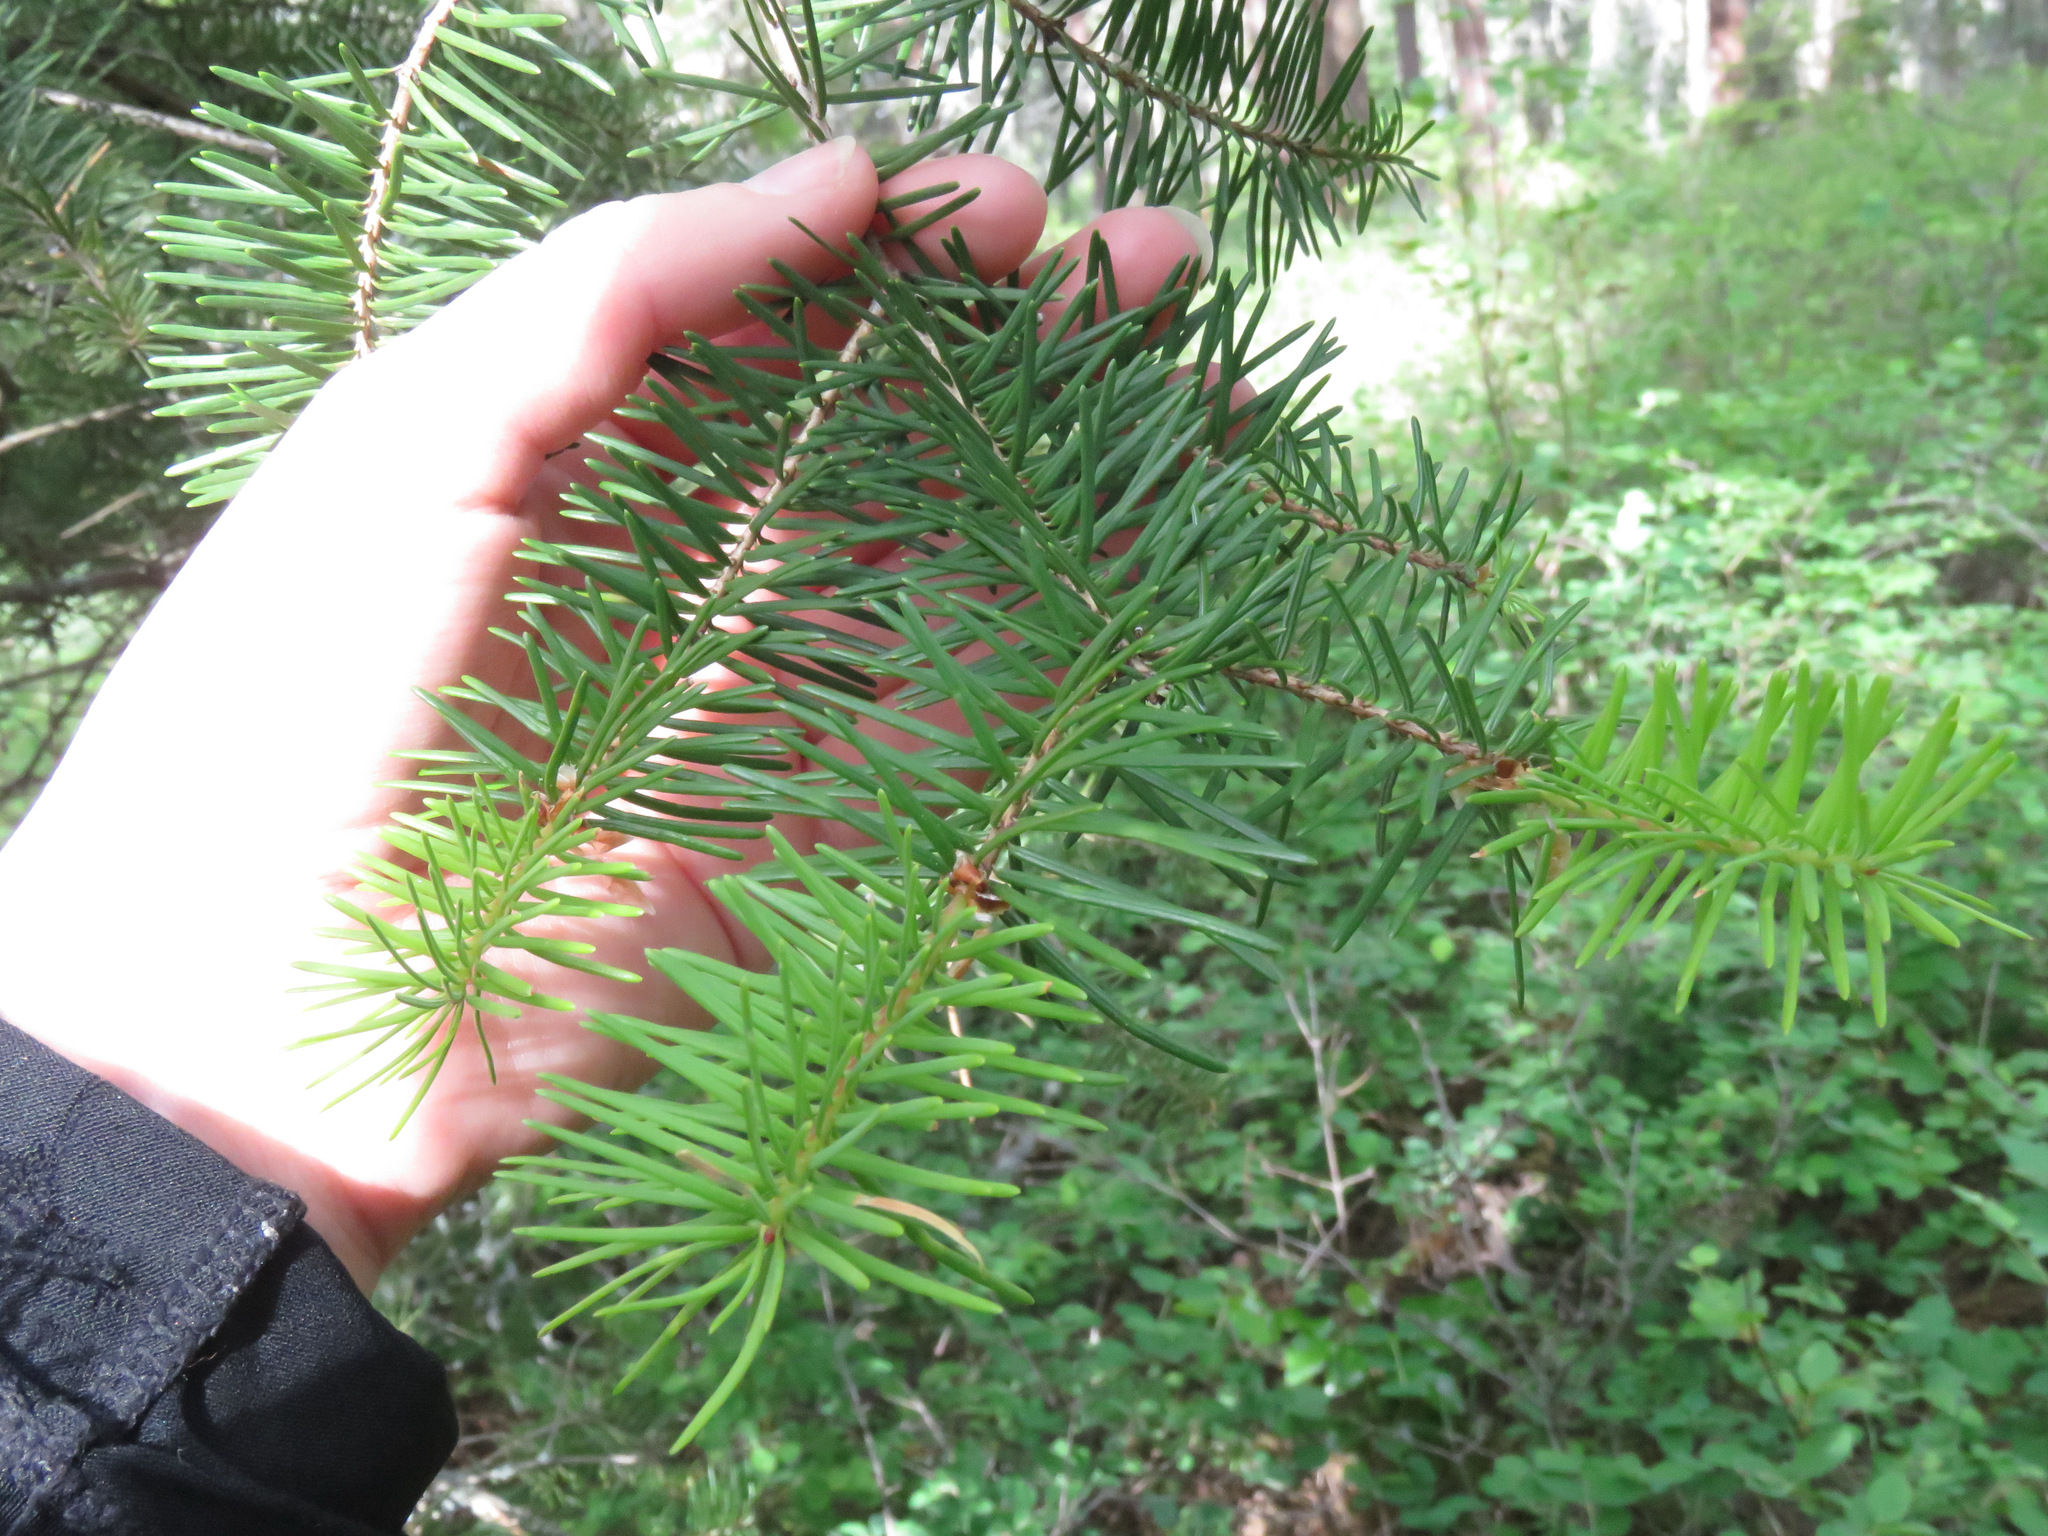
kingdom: Plantae
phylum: Tracheophyta
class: Pinopsida
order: Pinales
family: Pinaceae
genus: Pseudotsuga
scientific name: Pseudotsuga menziesii
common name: Douglas fir
